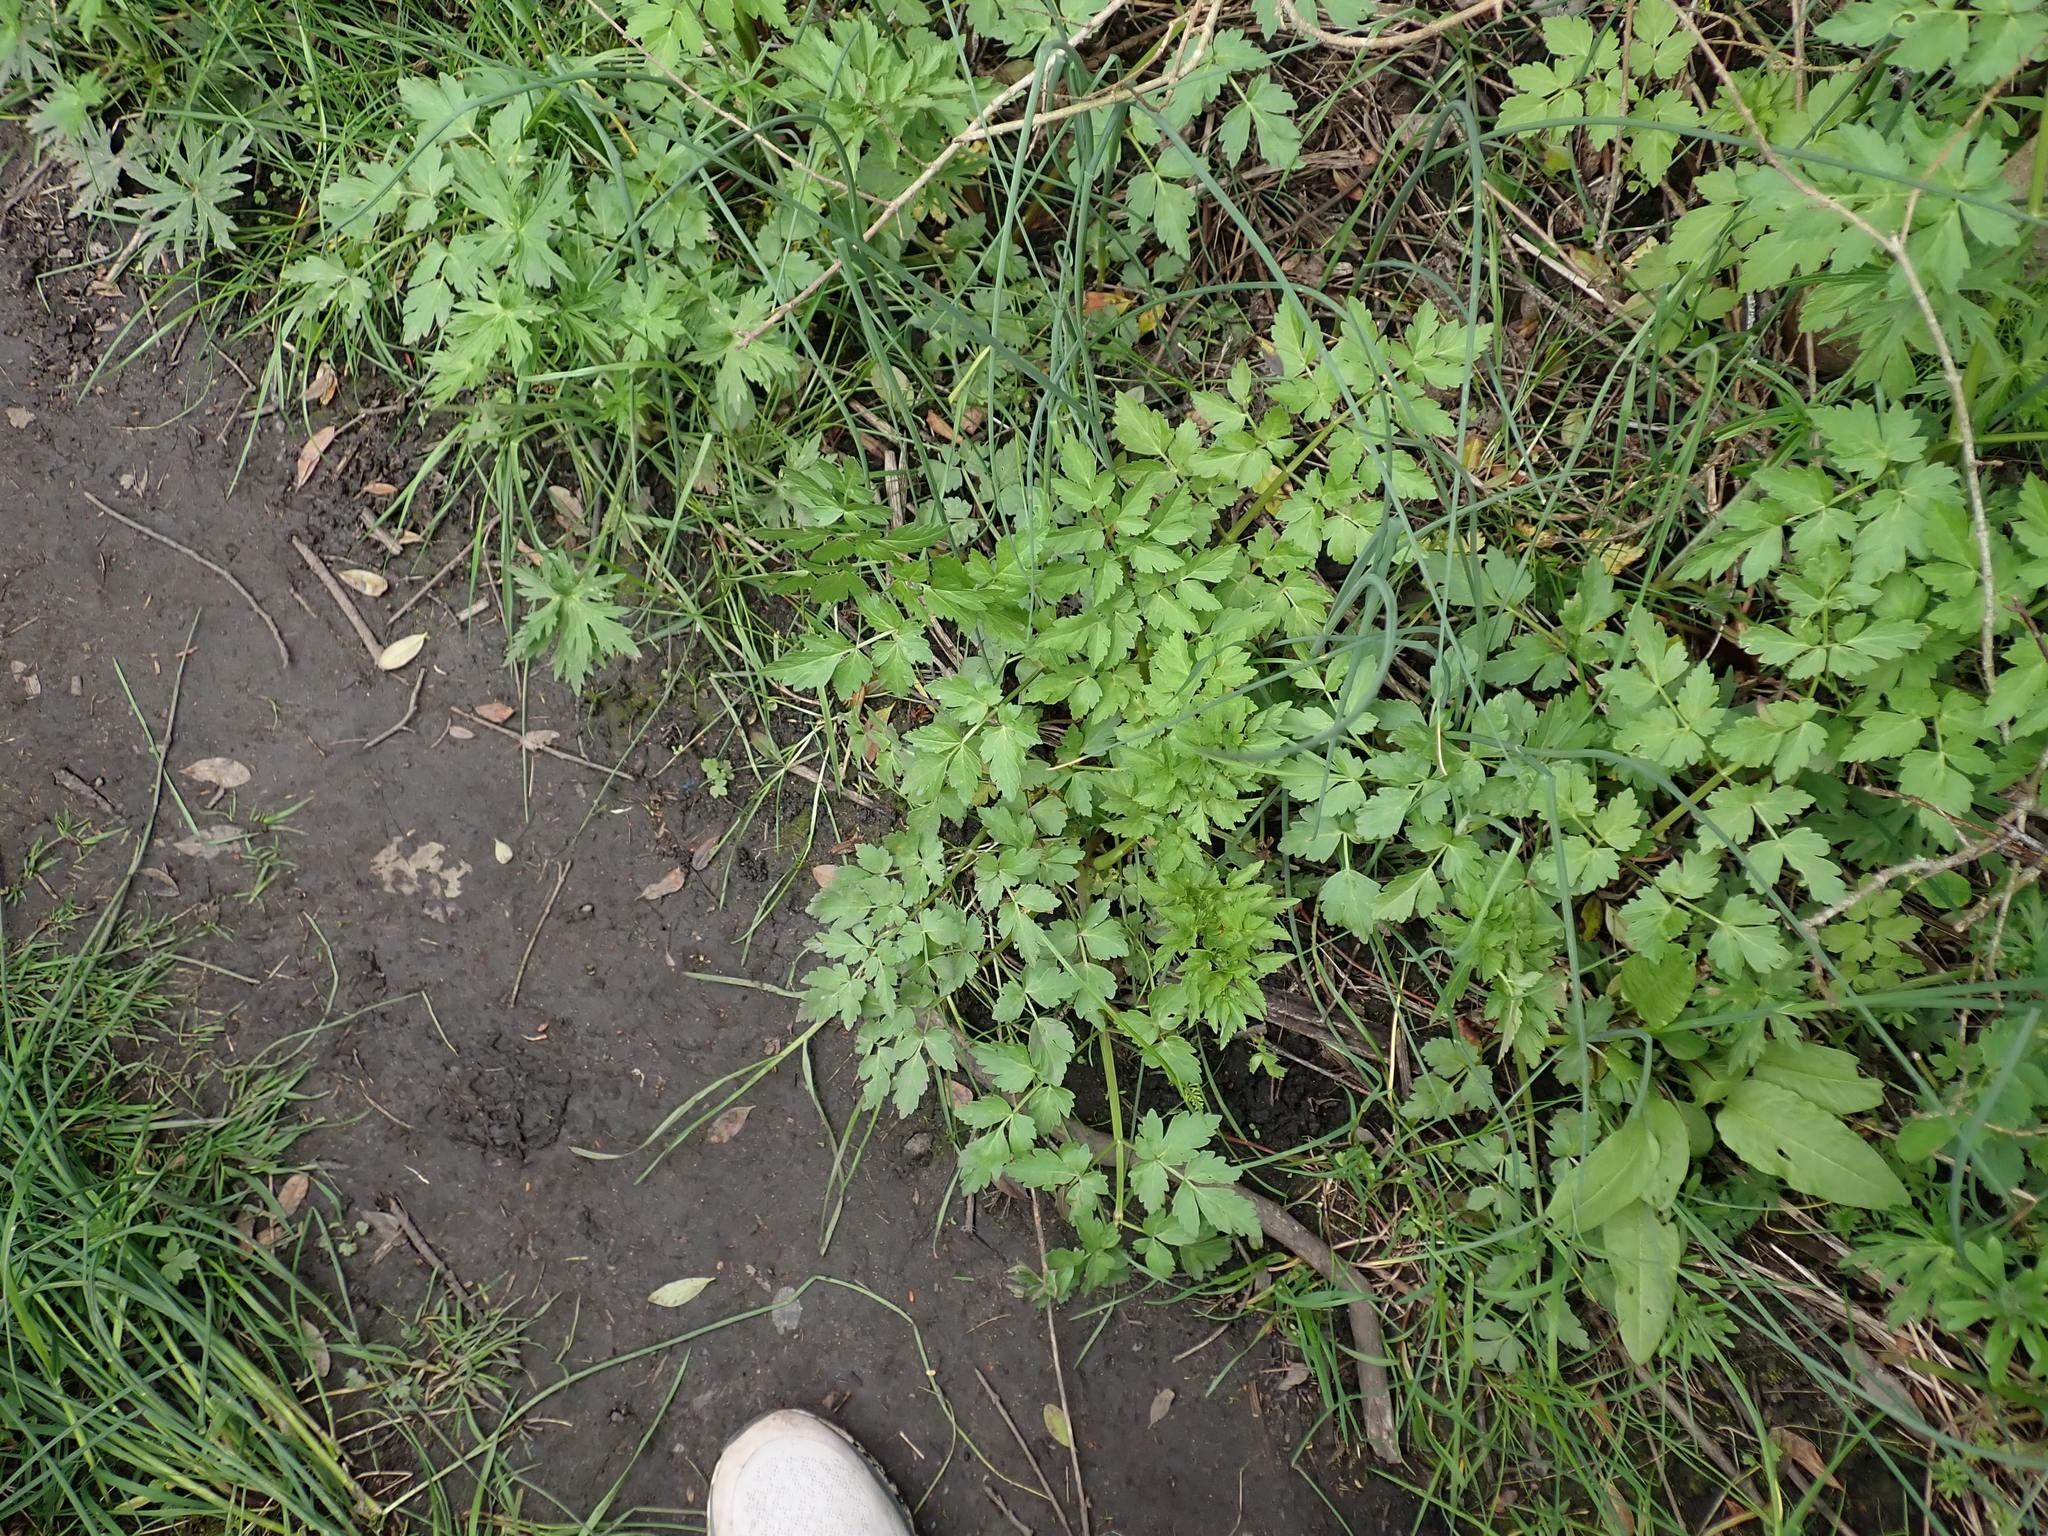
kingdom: Plantae
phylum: Tracheophyta
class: Magnoliopsida
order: Apiales
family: Apiaceae
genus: Oenanthe
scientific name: Oenanthe sarmentosa
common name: American water-parsley
